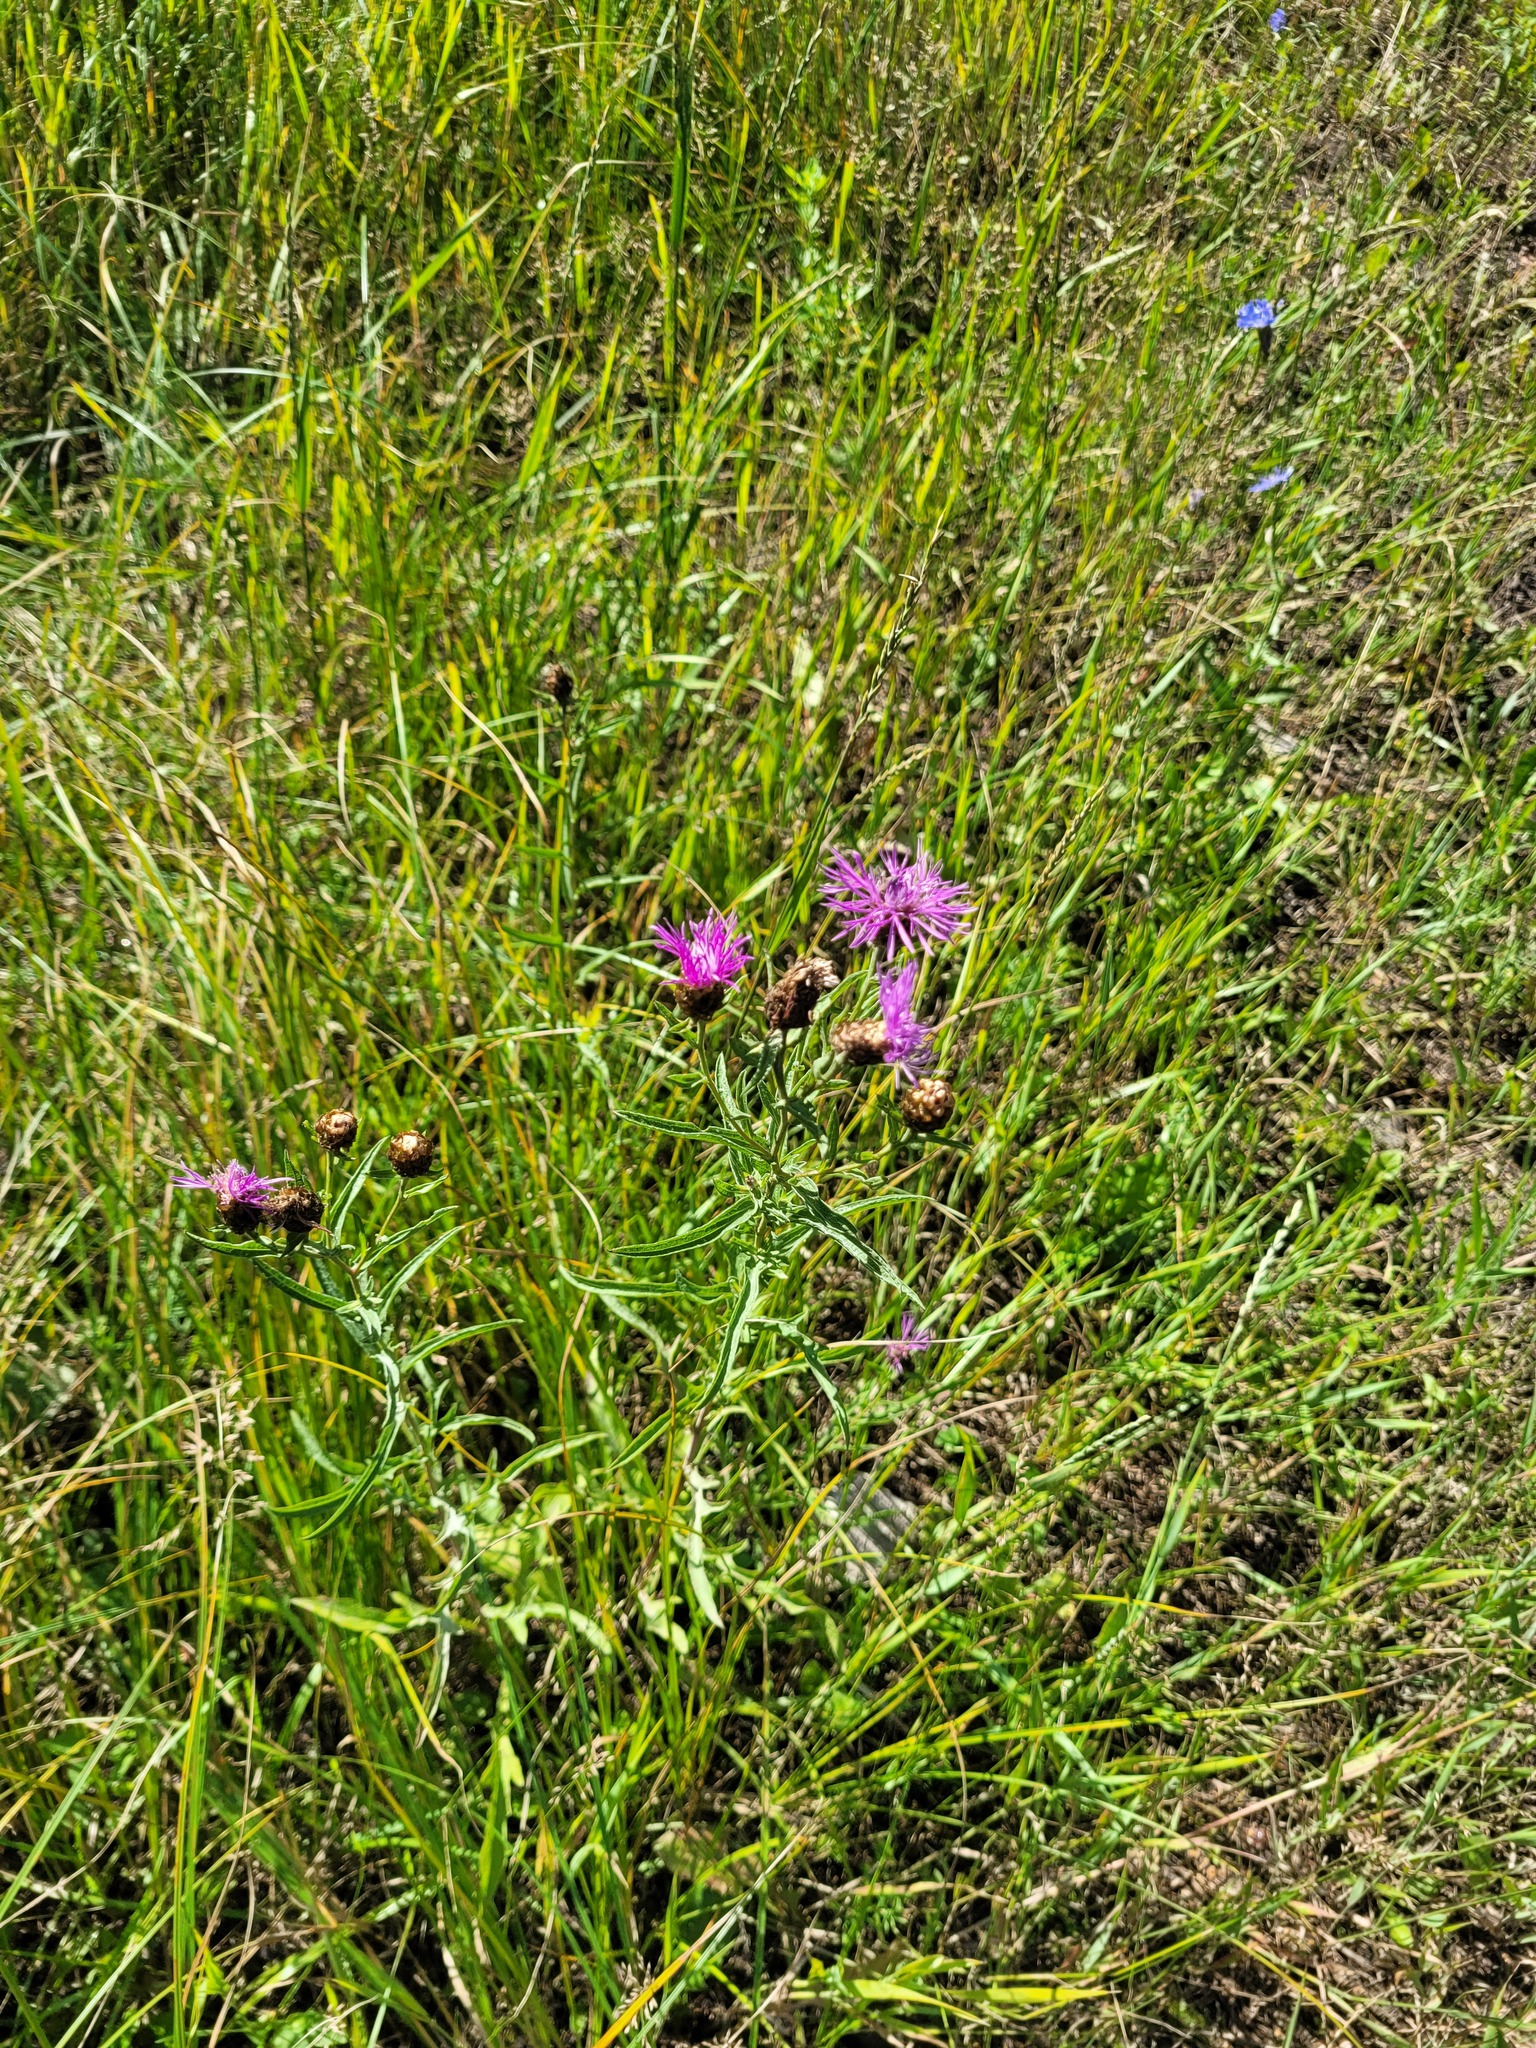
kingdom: Plantae
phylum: Tracheophyta
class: Magnoliopsida
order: Asterales
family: Asteraceae
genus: Centaurea
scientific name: Centaurea jacea
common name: Brown knapweed
